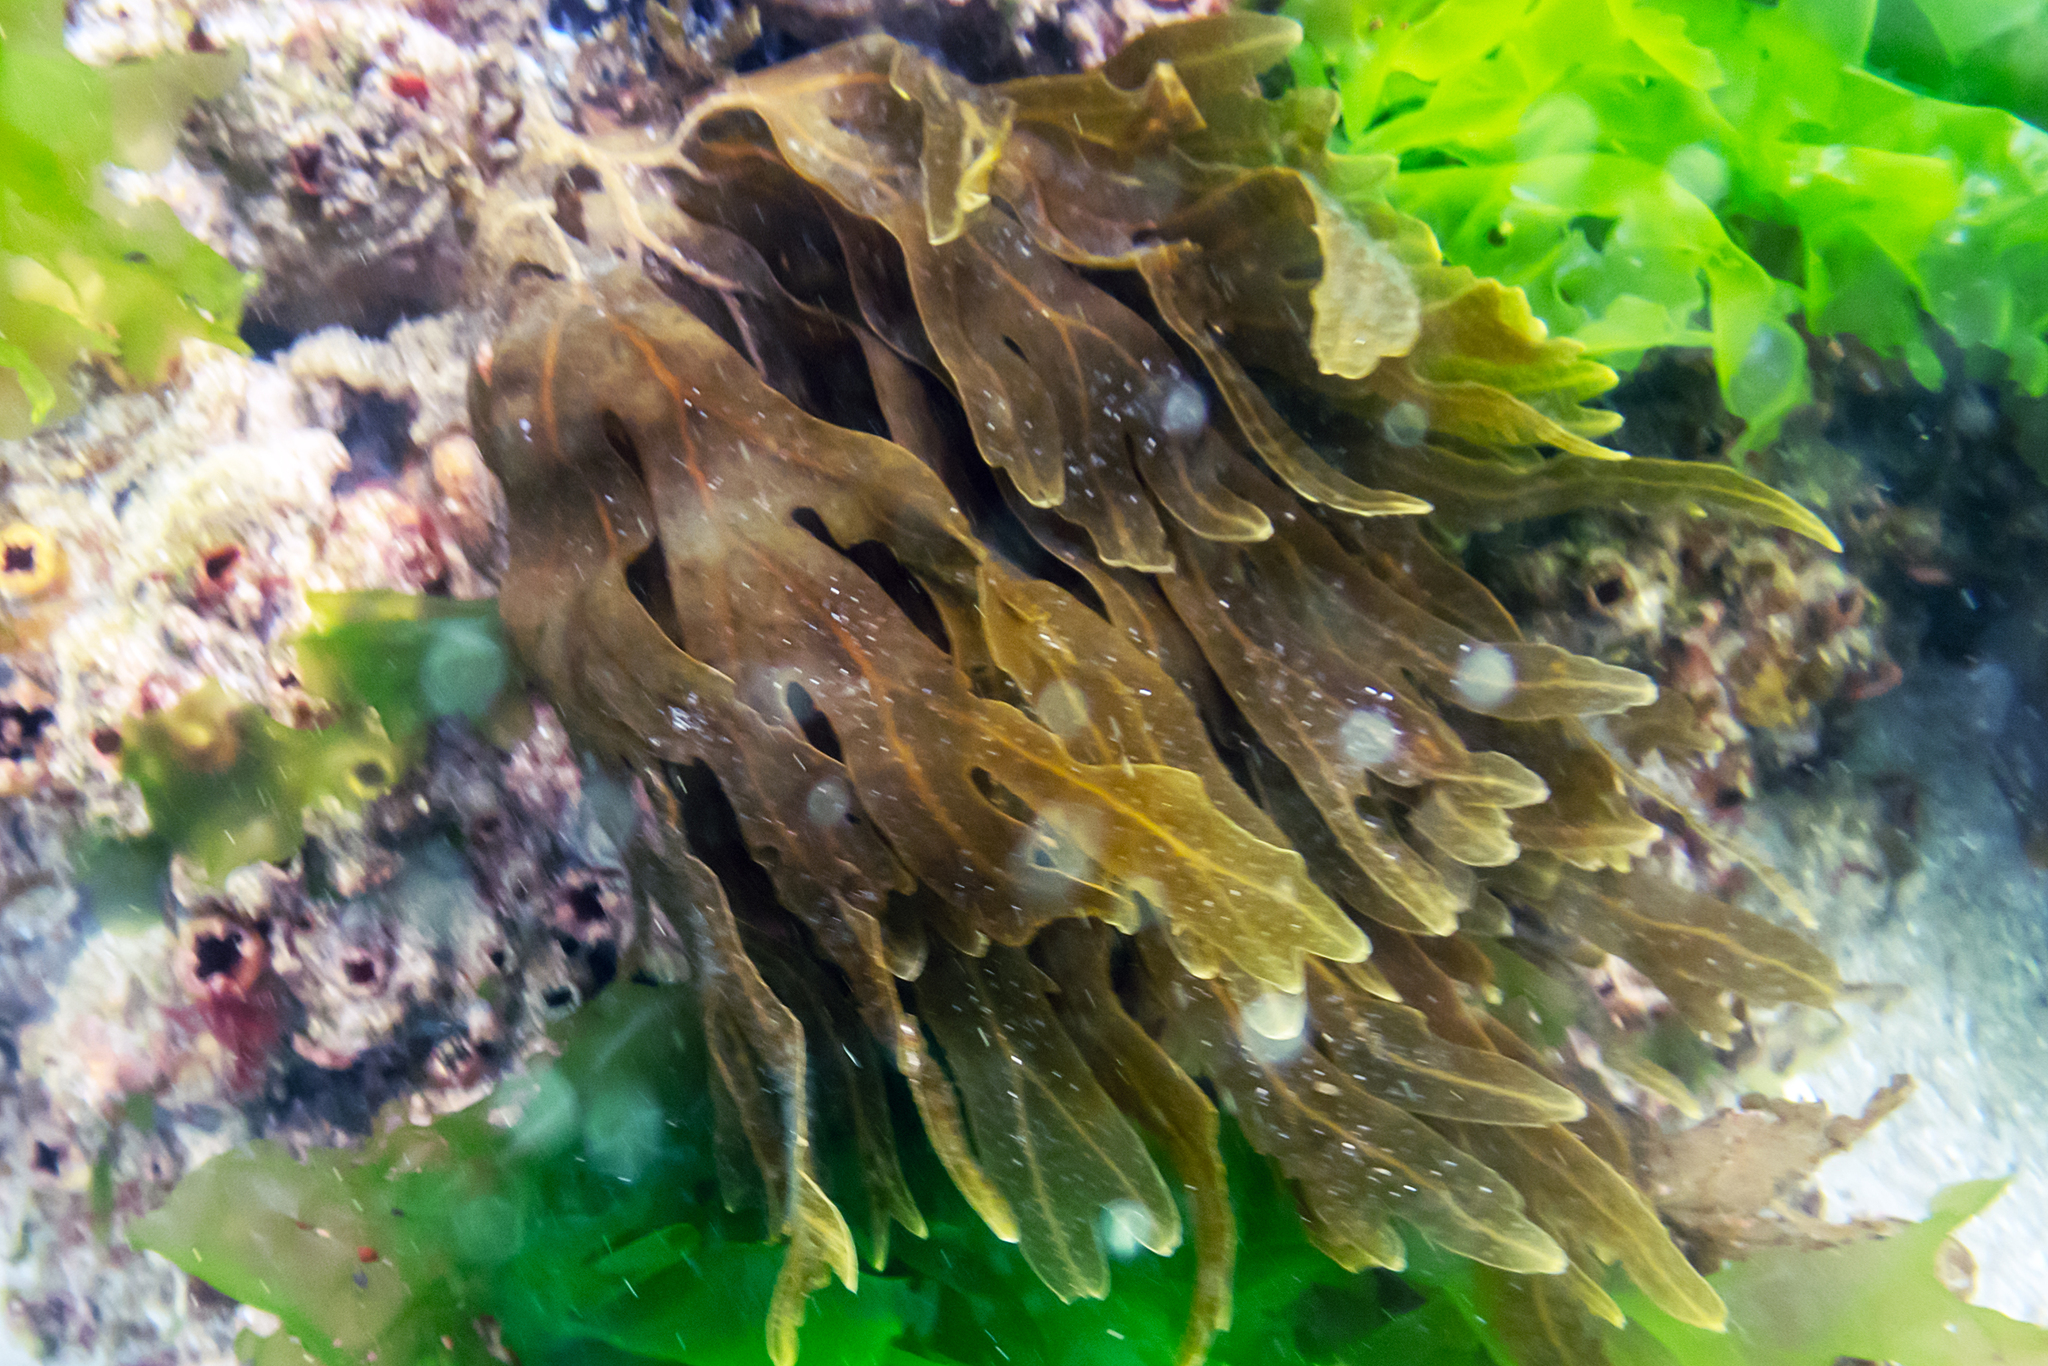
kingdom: Chromista
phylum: Ochrophyta
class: Phaeophyceae
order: Dictyotales
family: Dictyotaceae
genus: Dictyopteris
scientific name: Dictyopteris muelleri
